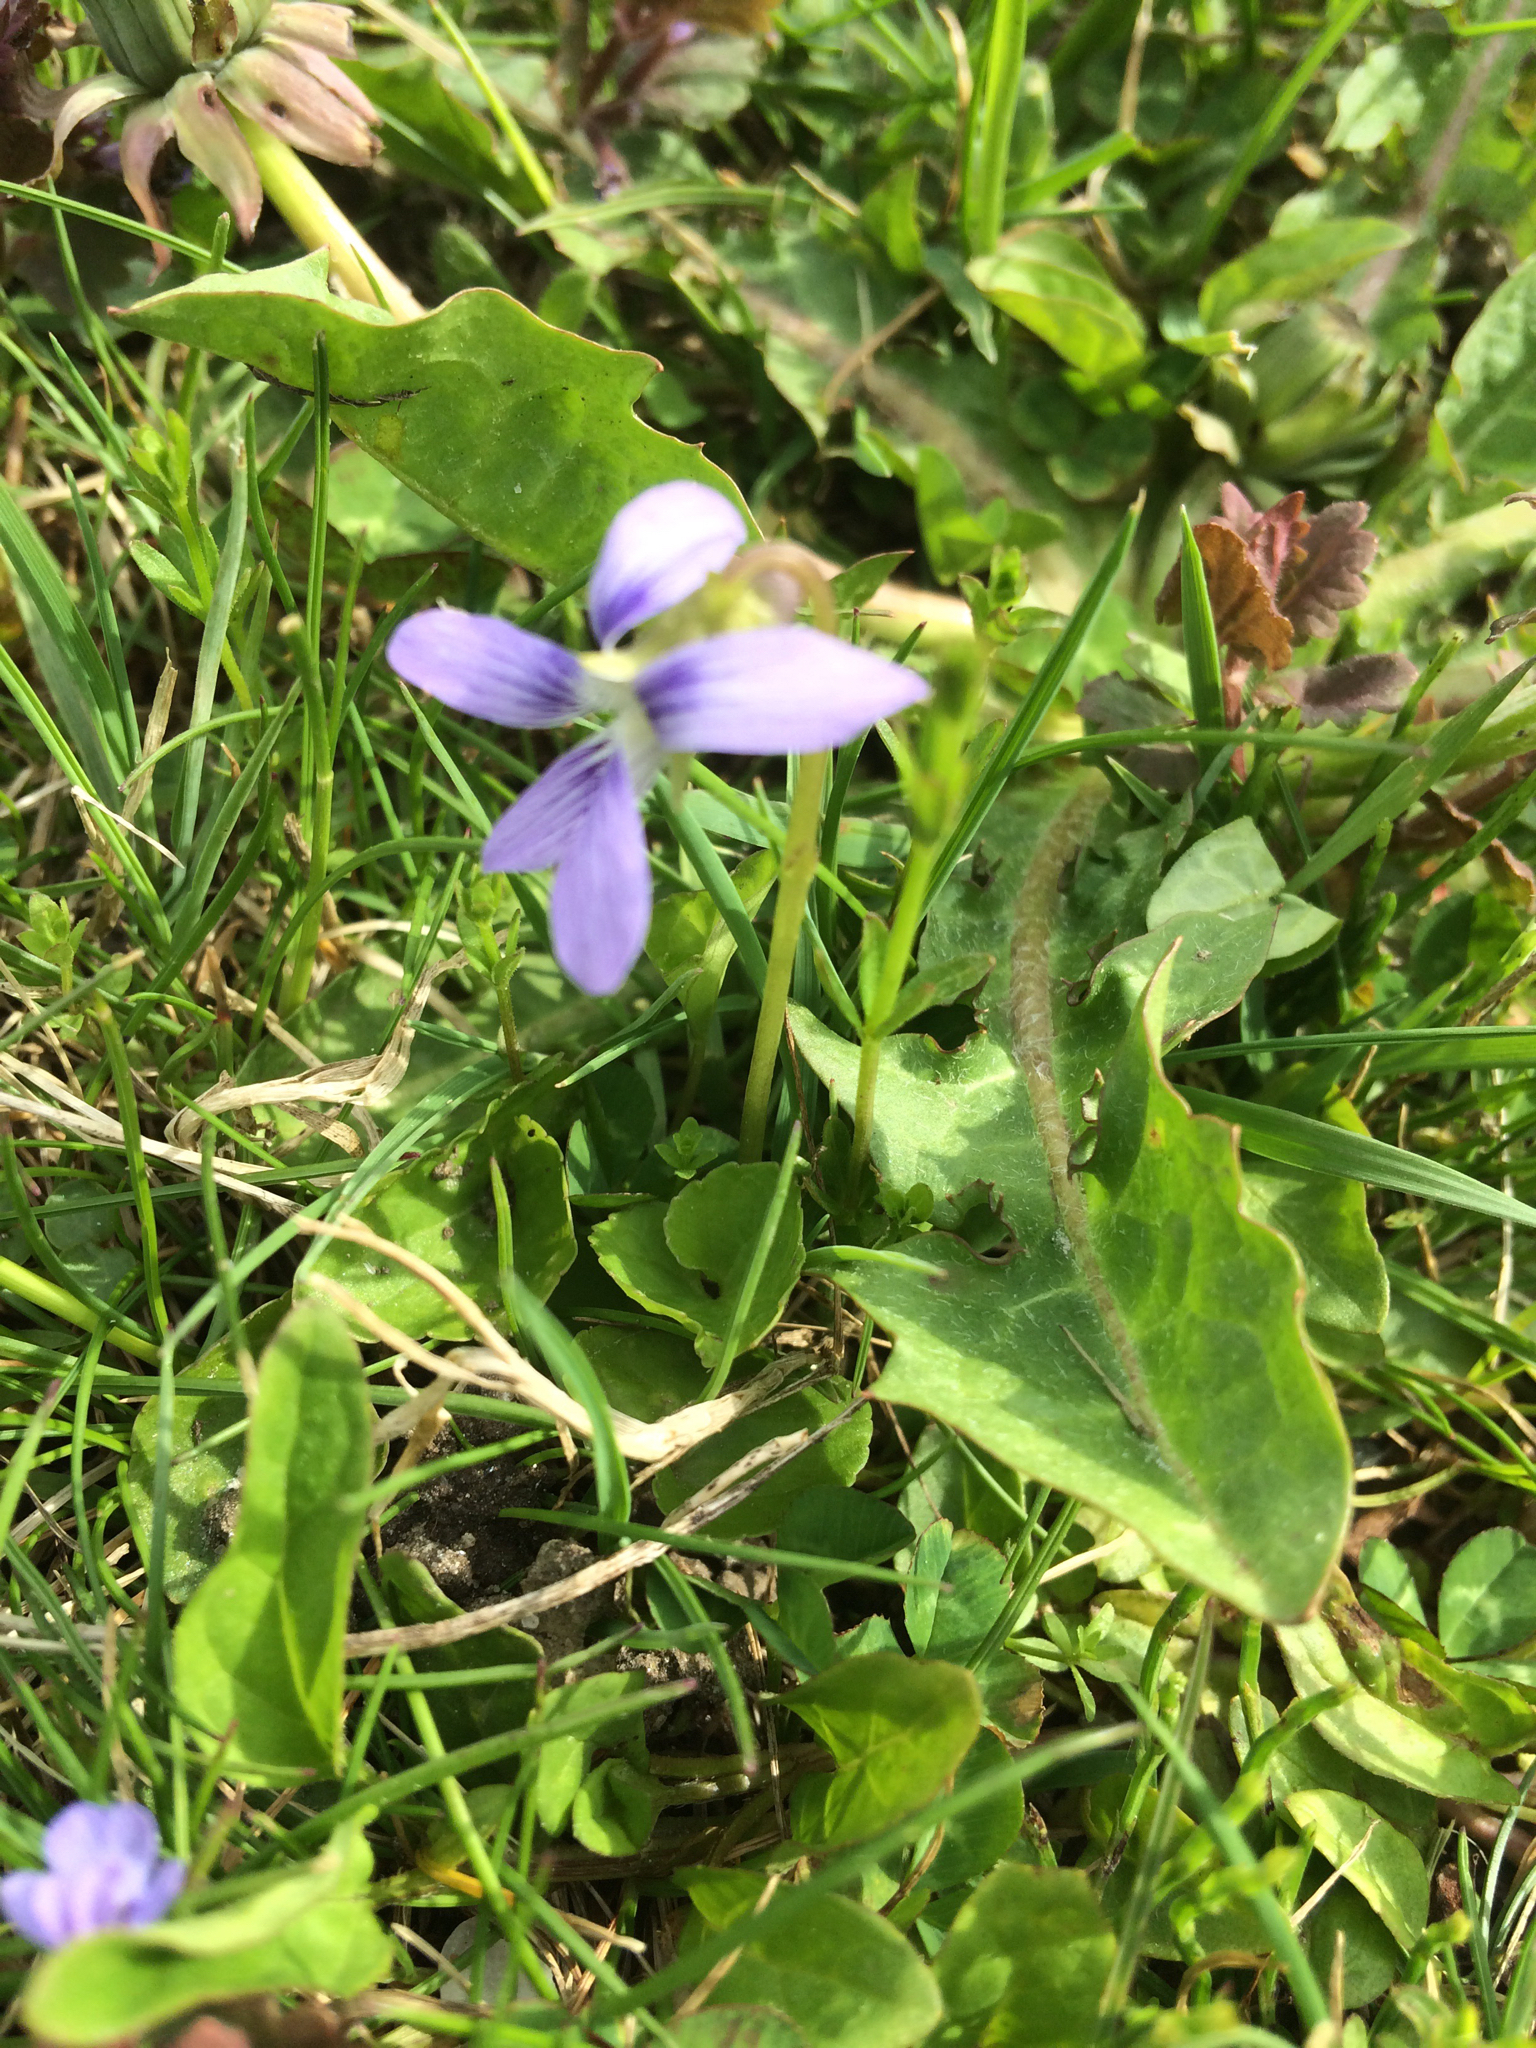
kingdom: Plantae
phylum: Tracheophyta
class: Magnoliopsida
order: Malpighiales
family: Violaceae
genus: Viola
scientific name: Viola sororia
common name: Dooryard violet
